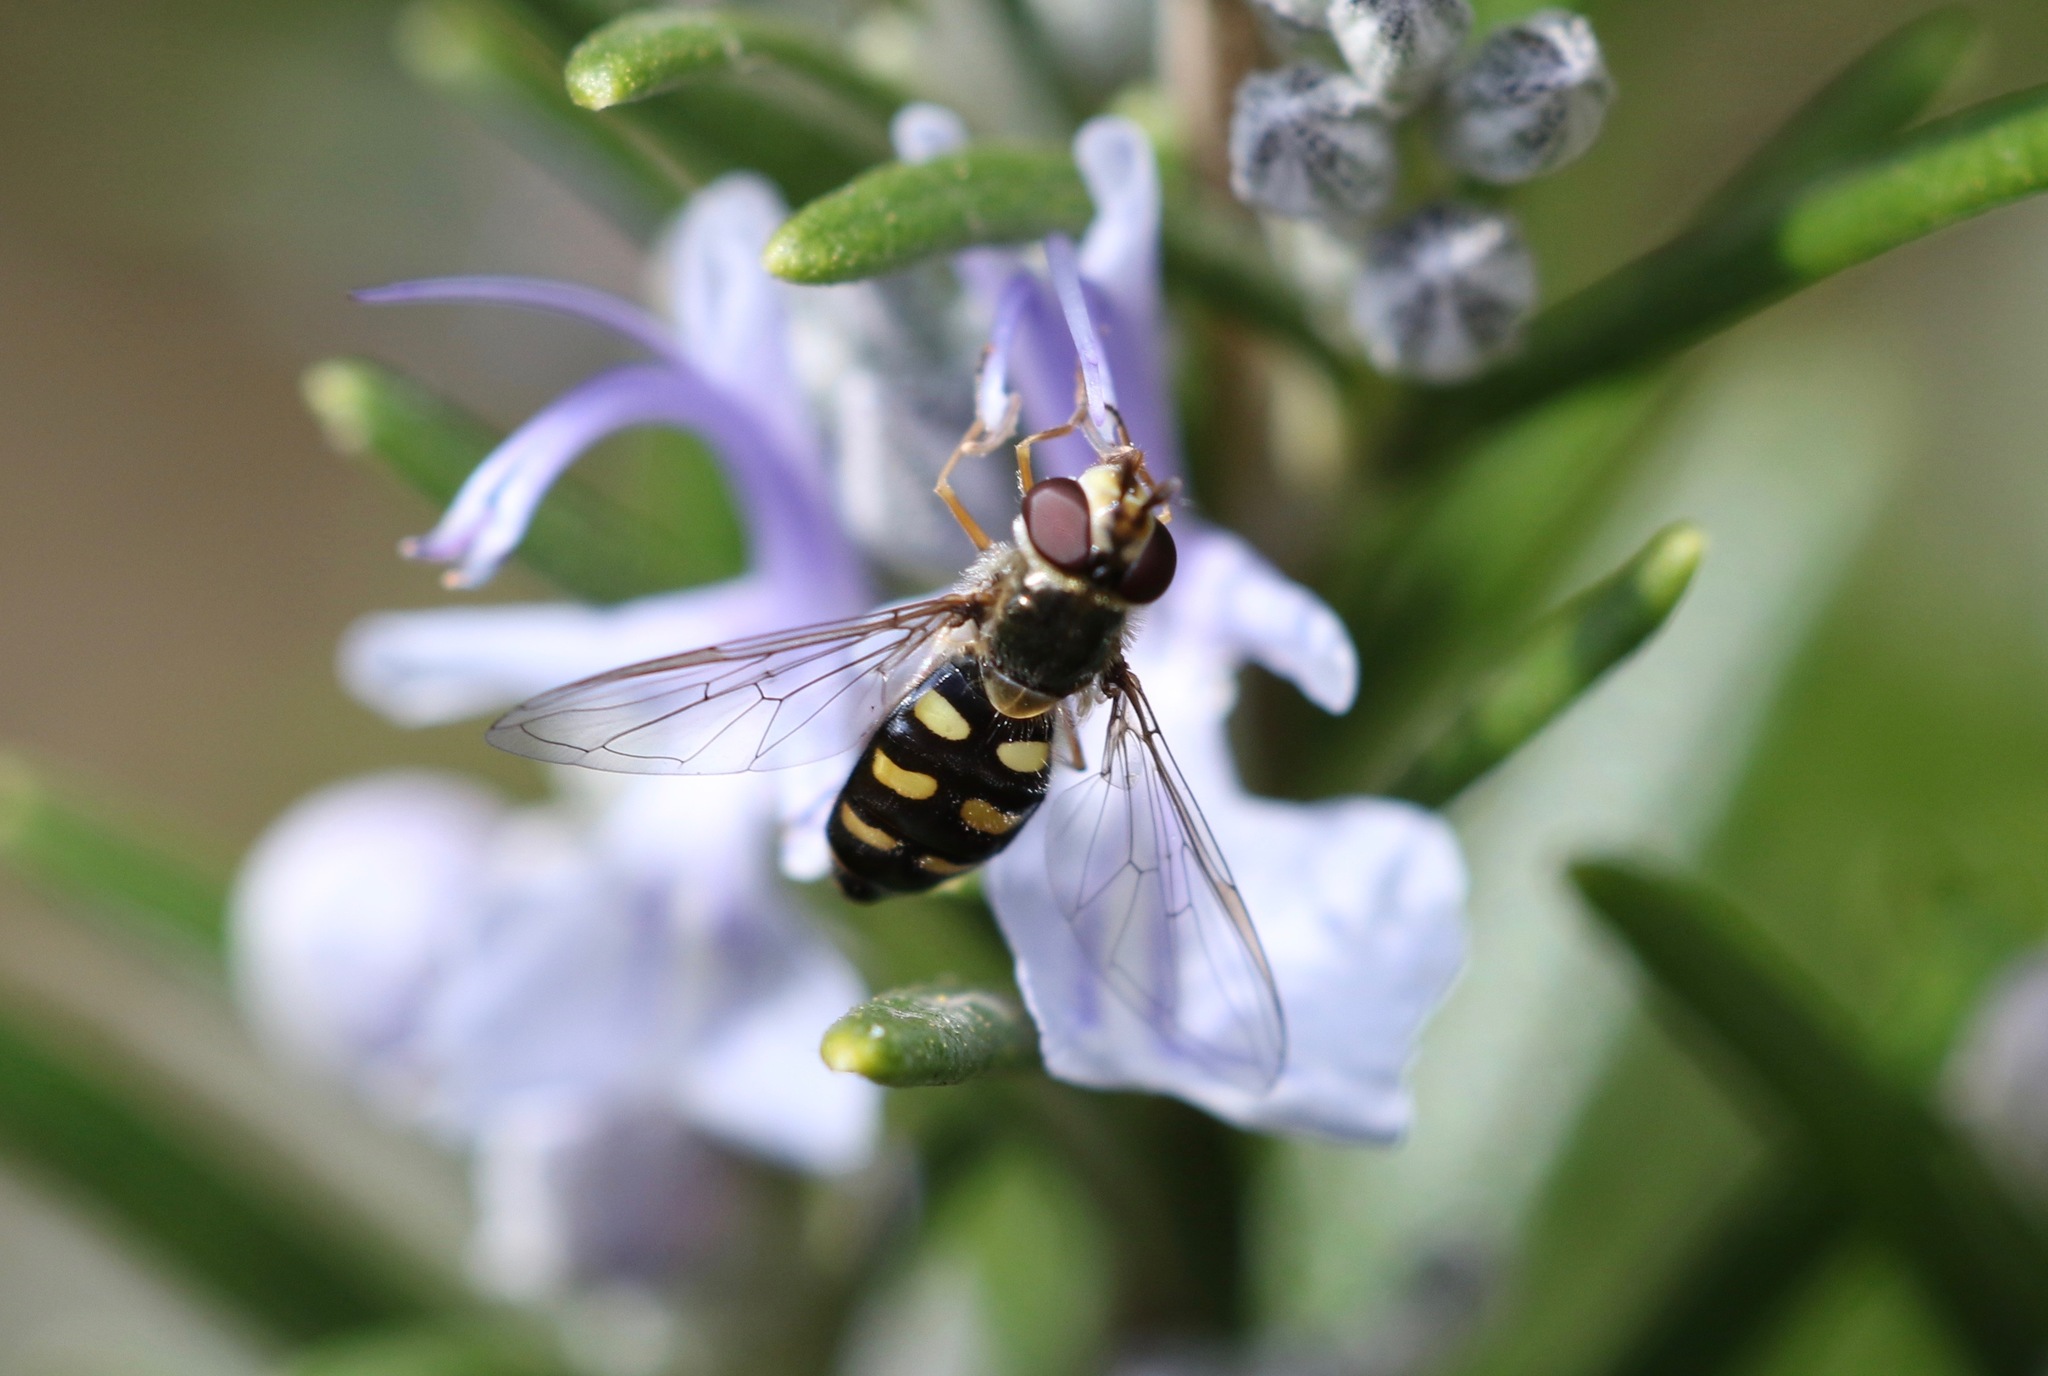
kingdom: Animalia
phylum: Arthropoda
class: Insecta
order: Diptera
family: Syrphidae
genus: Eupeodes
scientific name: Eupeodes luniger
